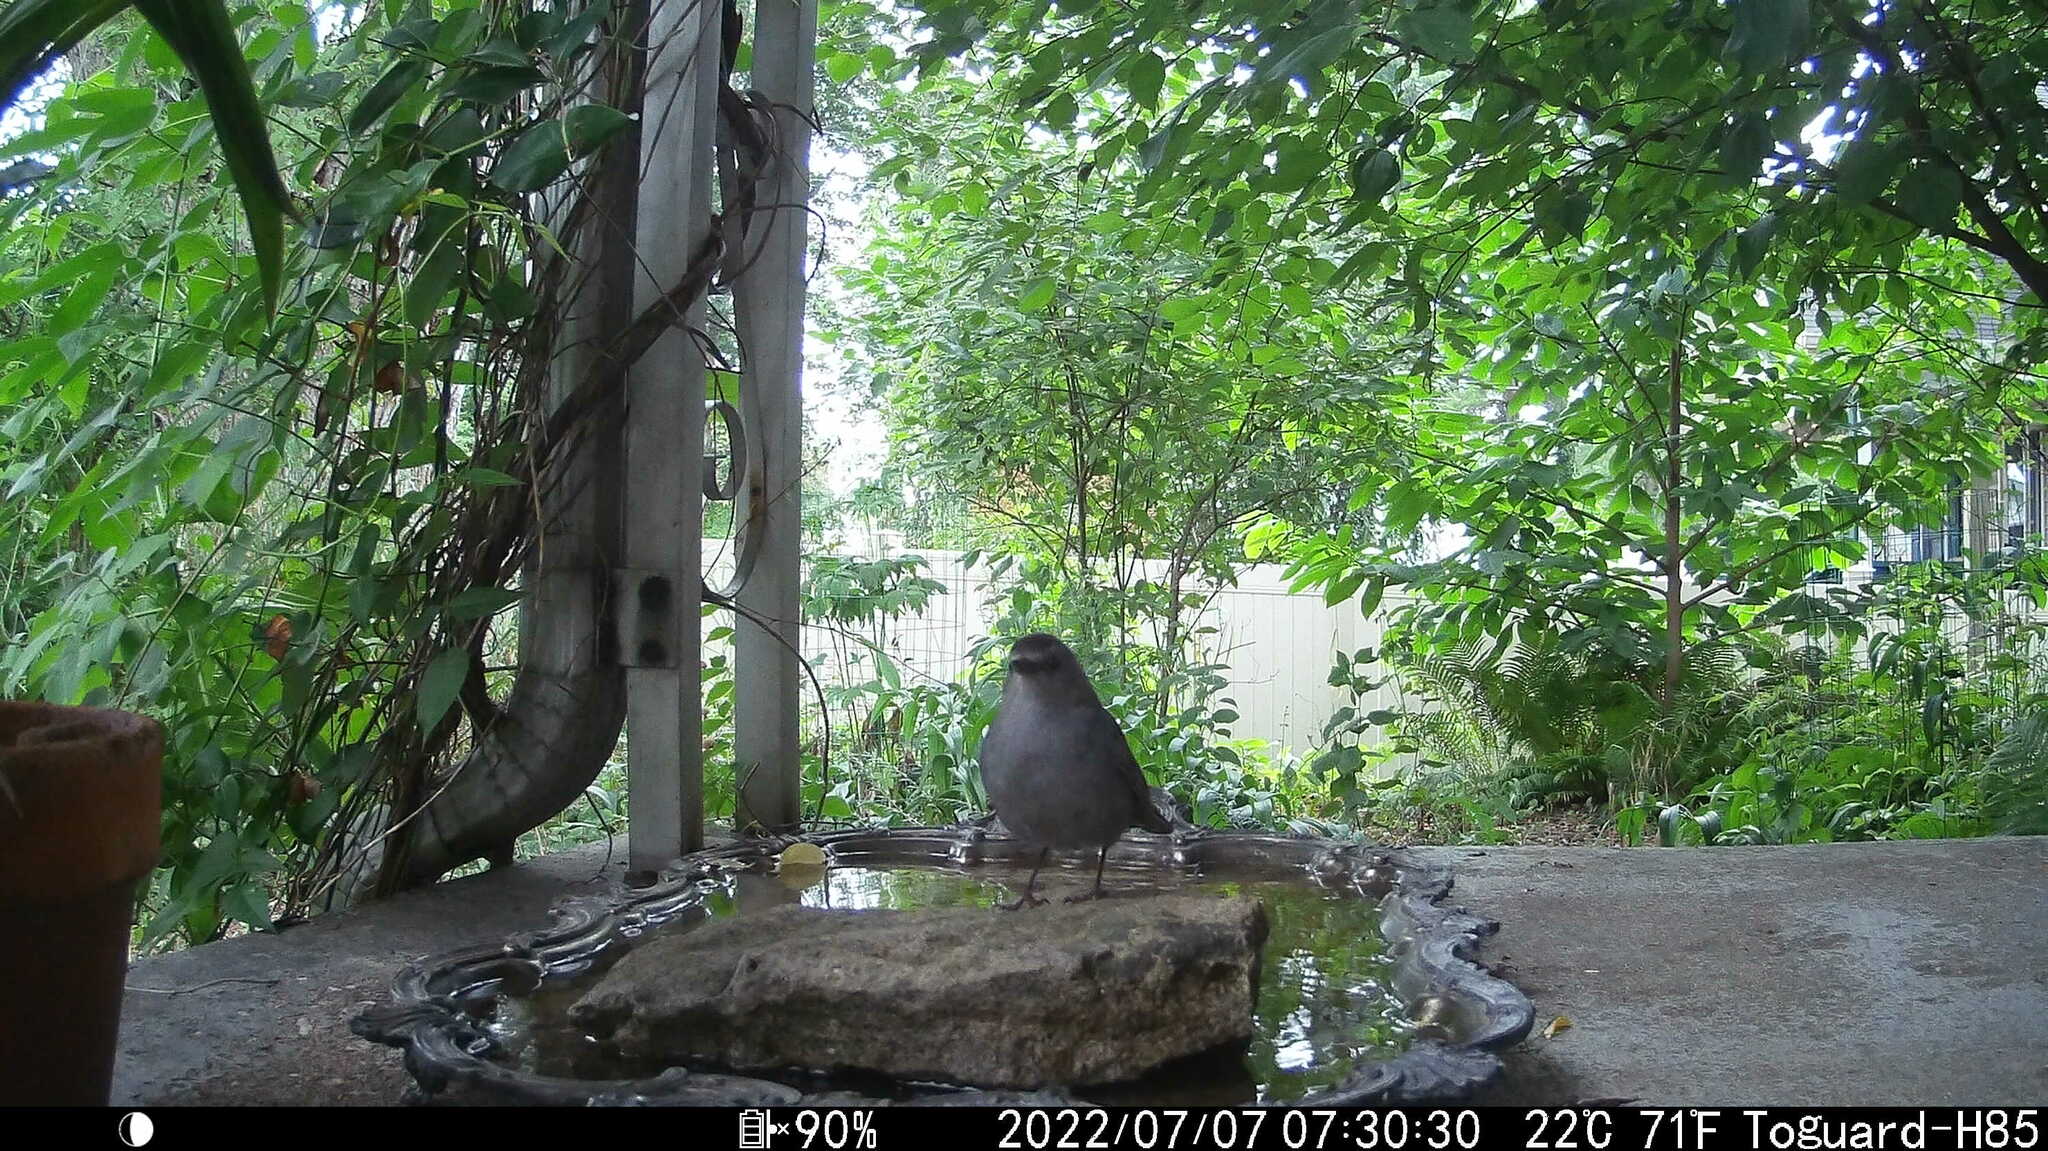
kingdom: Animalia
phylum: Chordata
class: Aves
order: Passeriformes
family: Mimidae
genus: Dumetella
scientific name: Dumetella carolinensis
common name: Gray catbird
